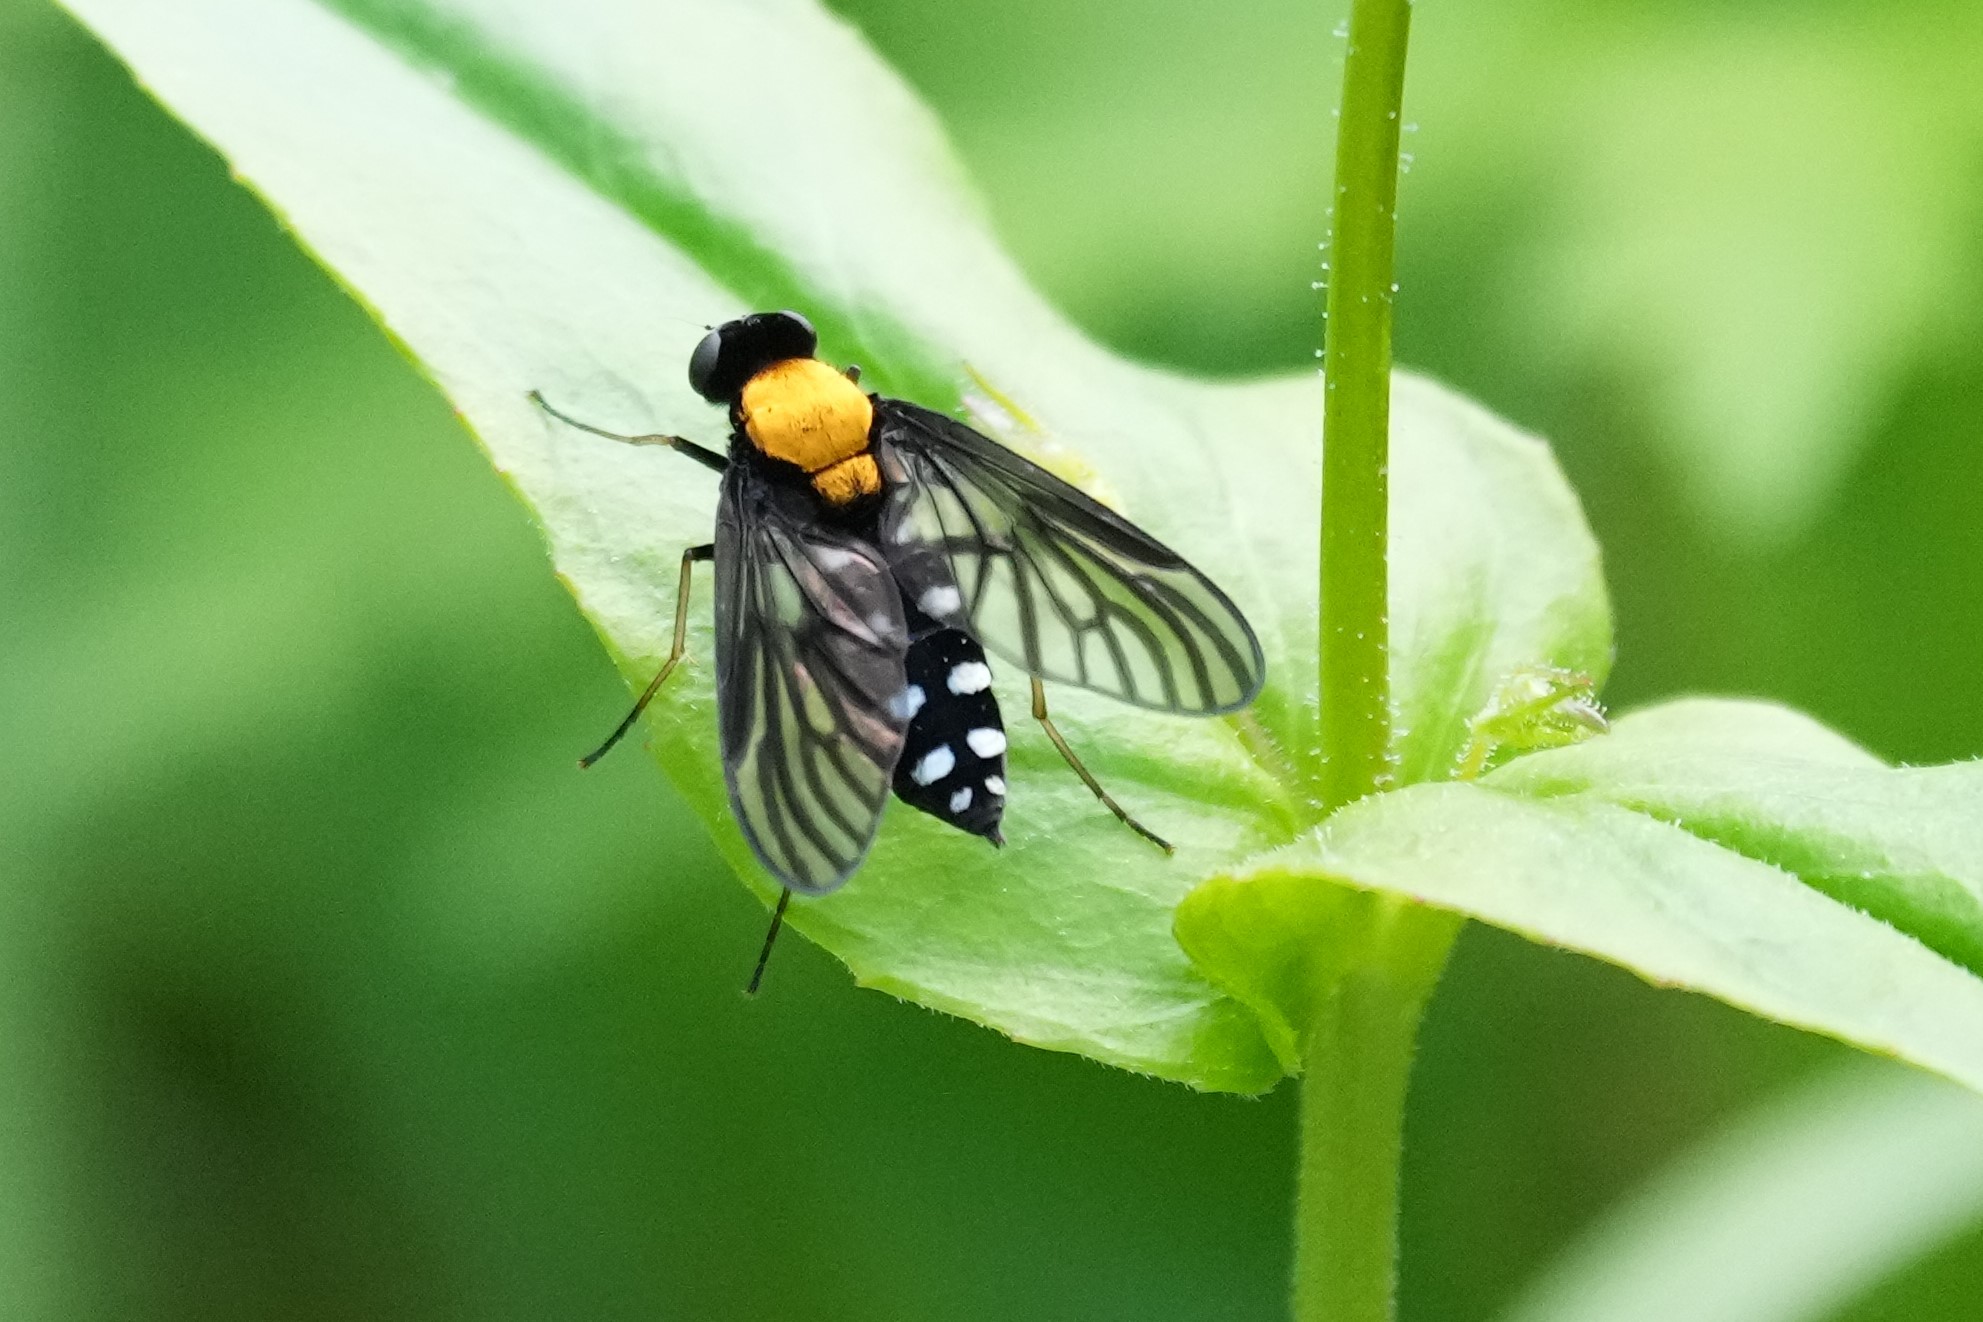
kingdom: Animalia
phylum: Arthropoda
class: Insecta
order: Diptera
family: Rhagionidae
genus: Chrysopilus
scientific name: Chrysopilus thoracicus
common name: Golden-backed snipe fly
